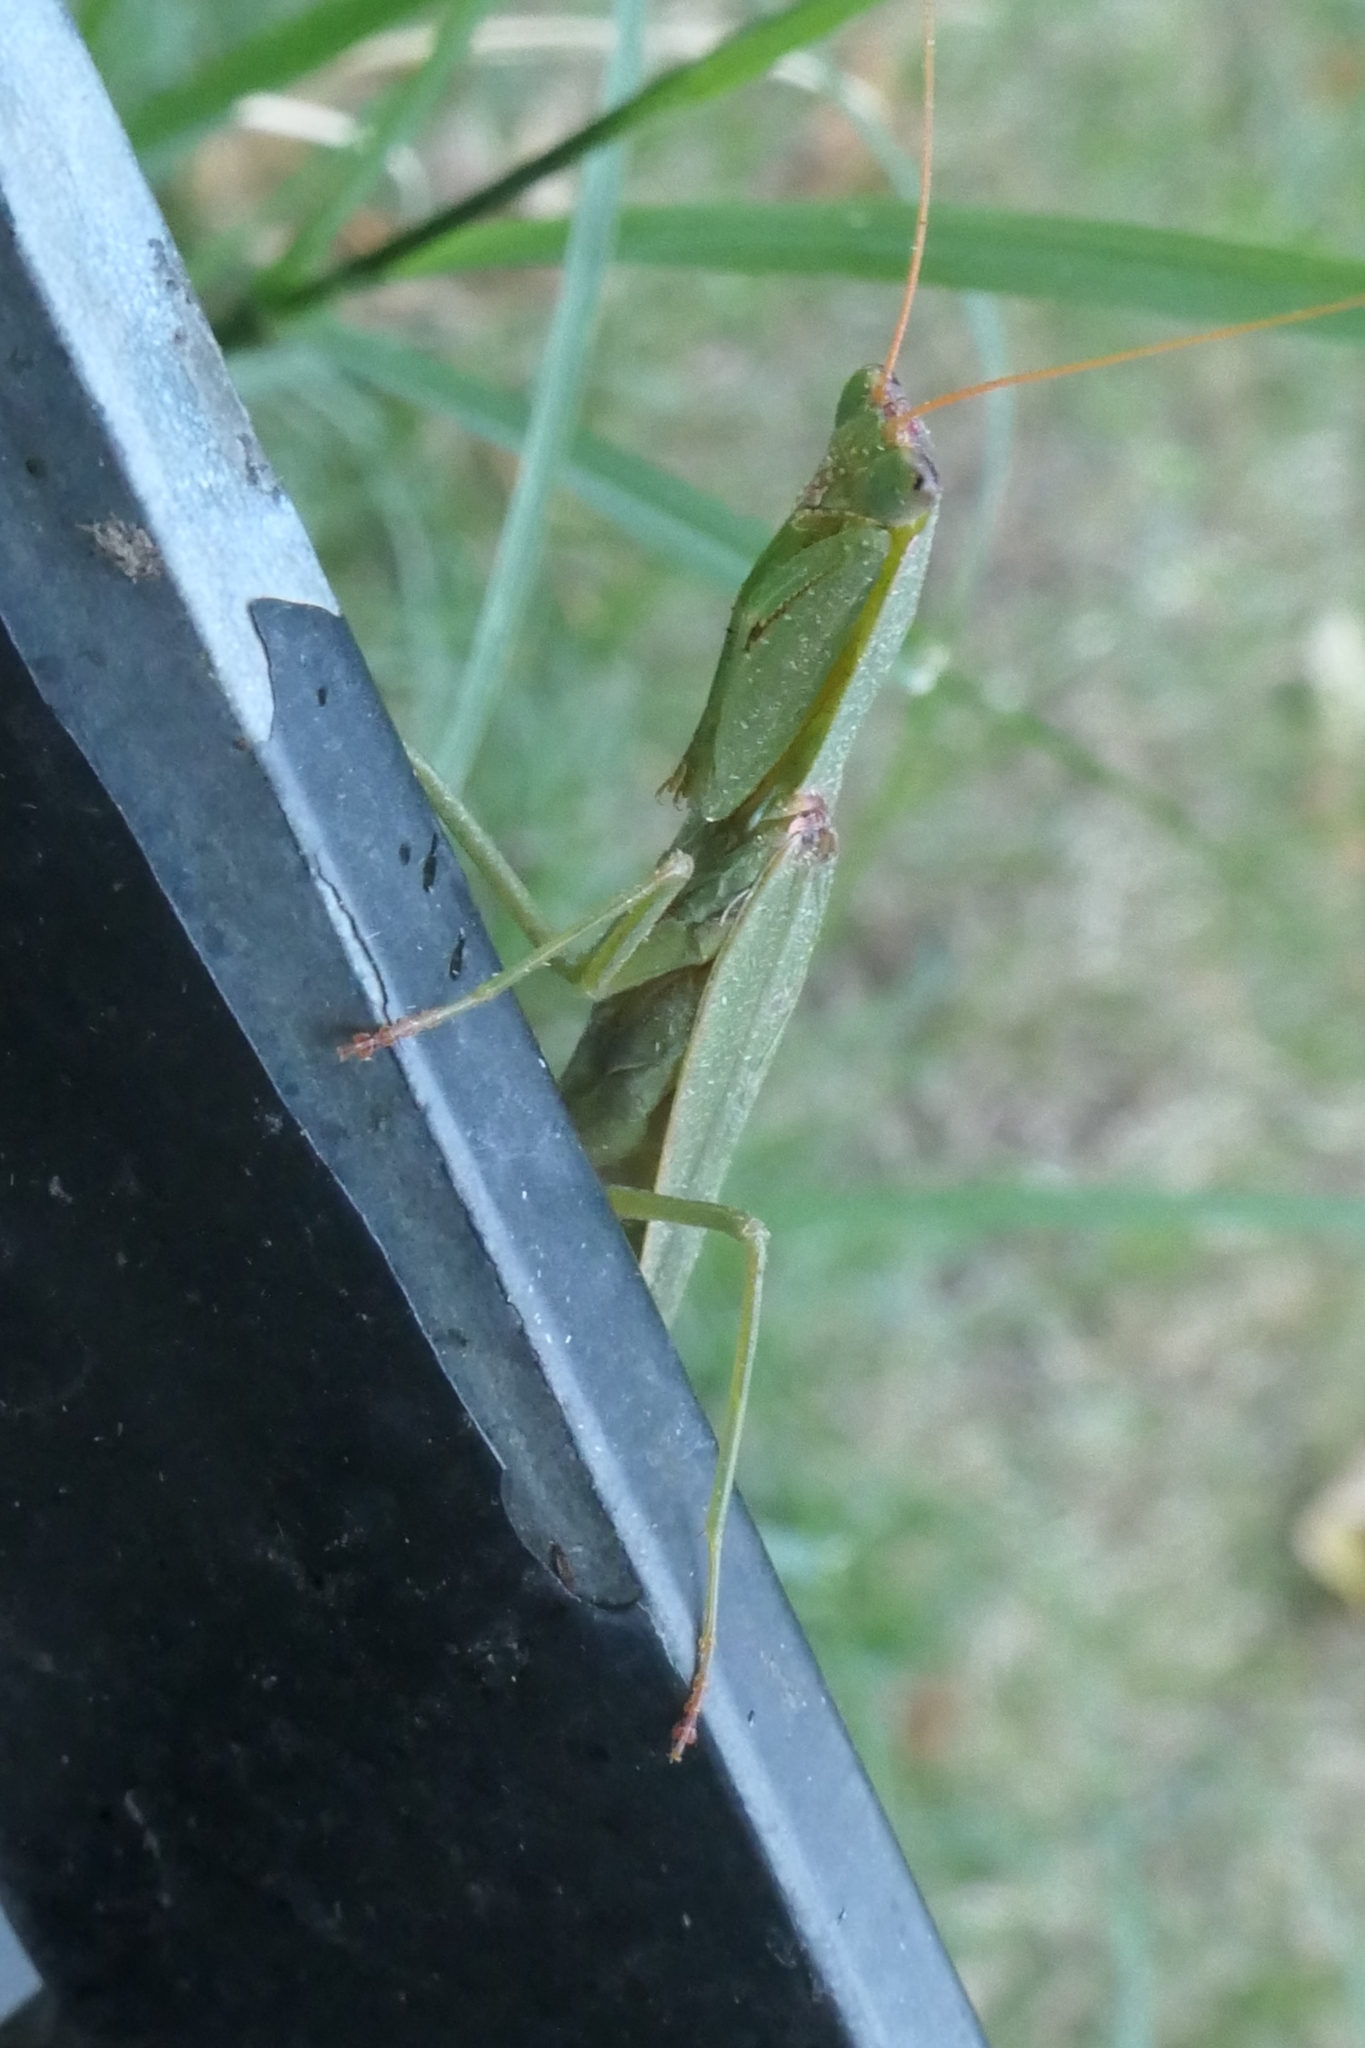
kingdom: Animalia
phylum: Arthropoda
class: Insecta
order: Mantodea
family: Mantidae
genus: Orthodera
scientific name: Orthodera novaezealandiae
